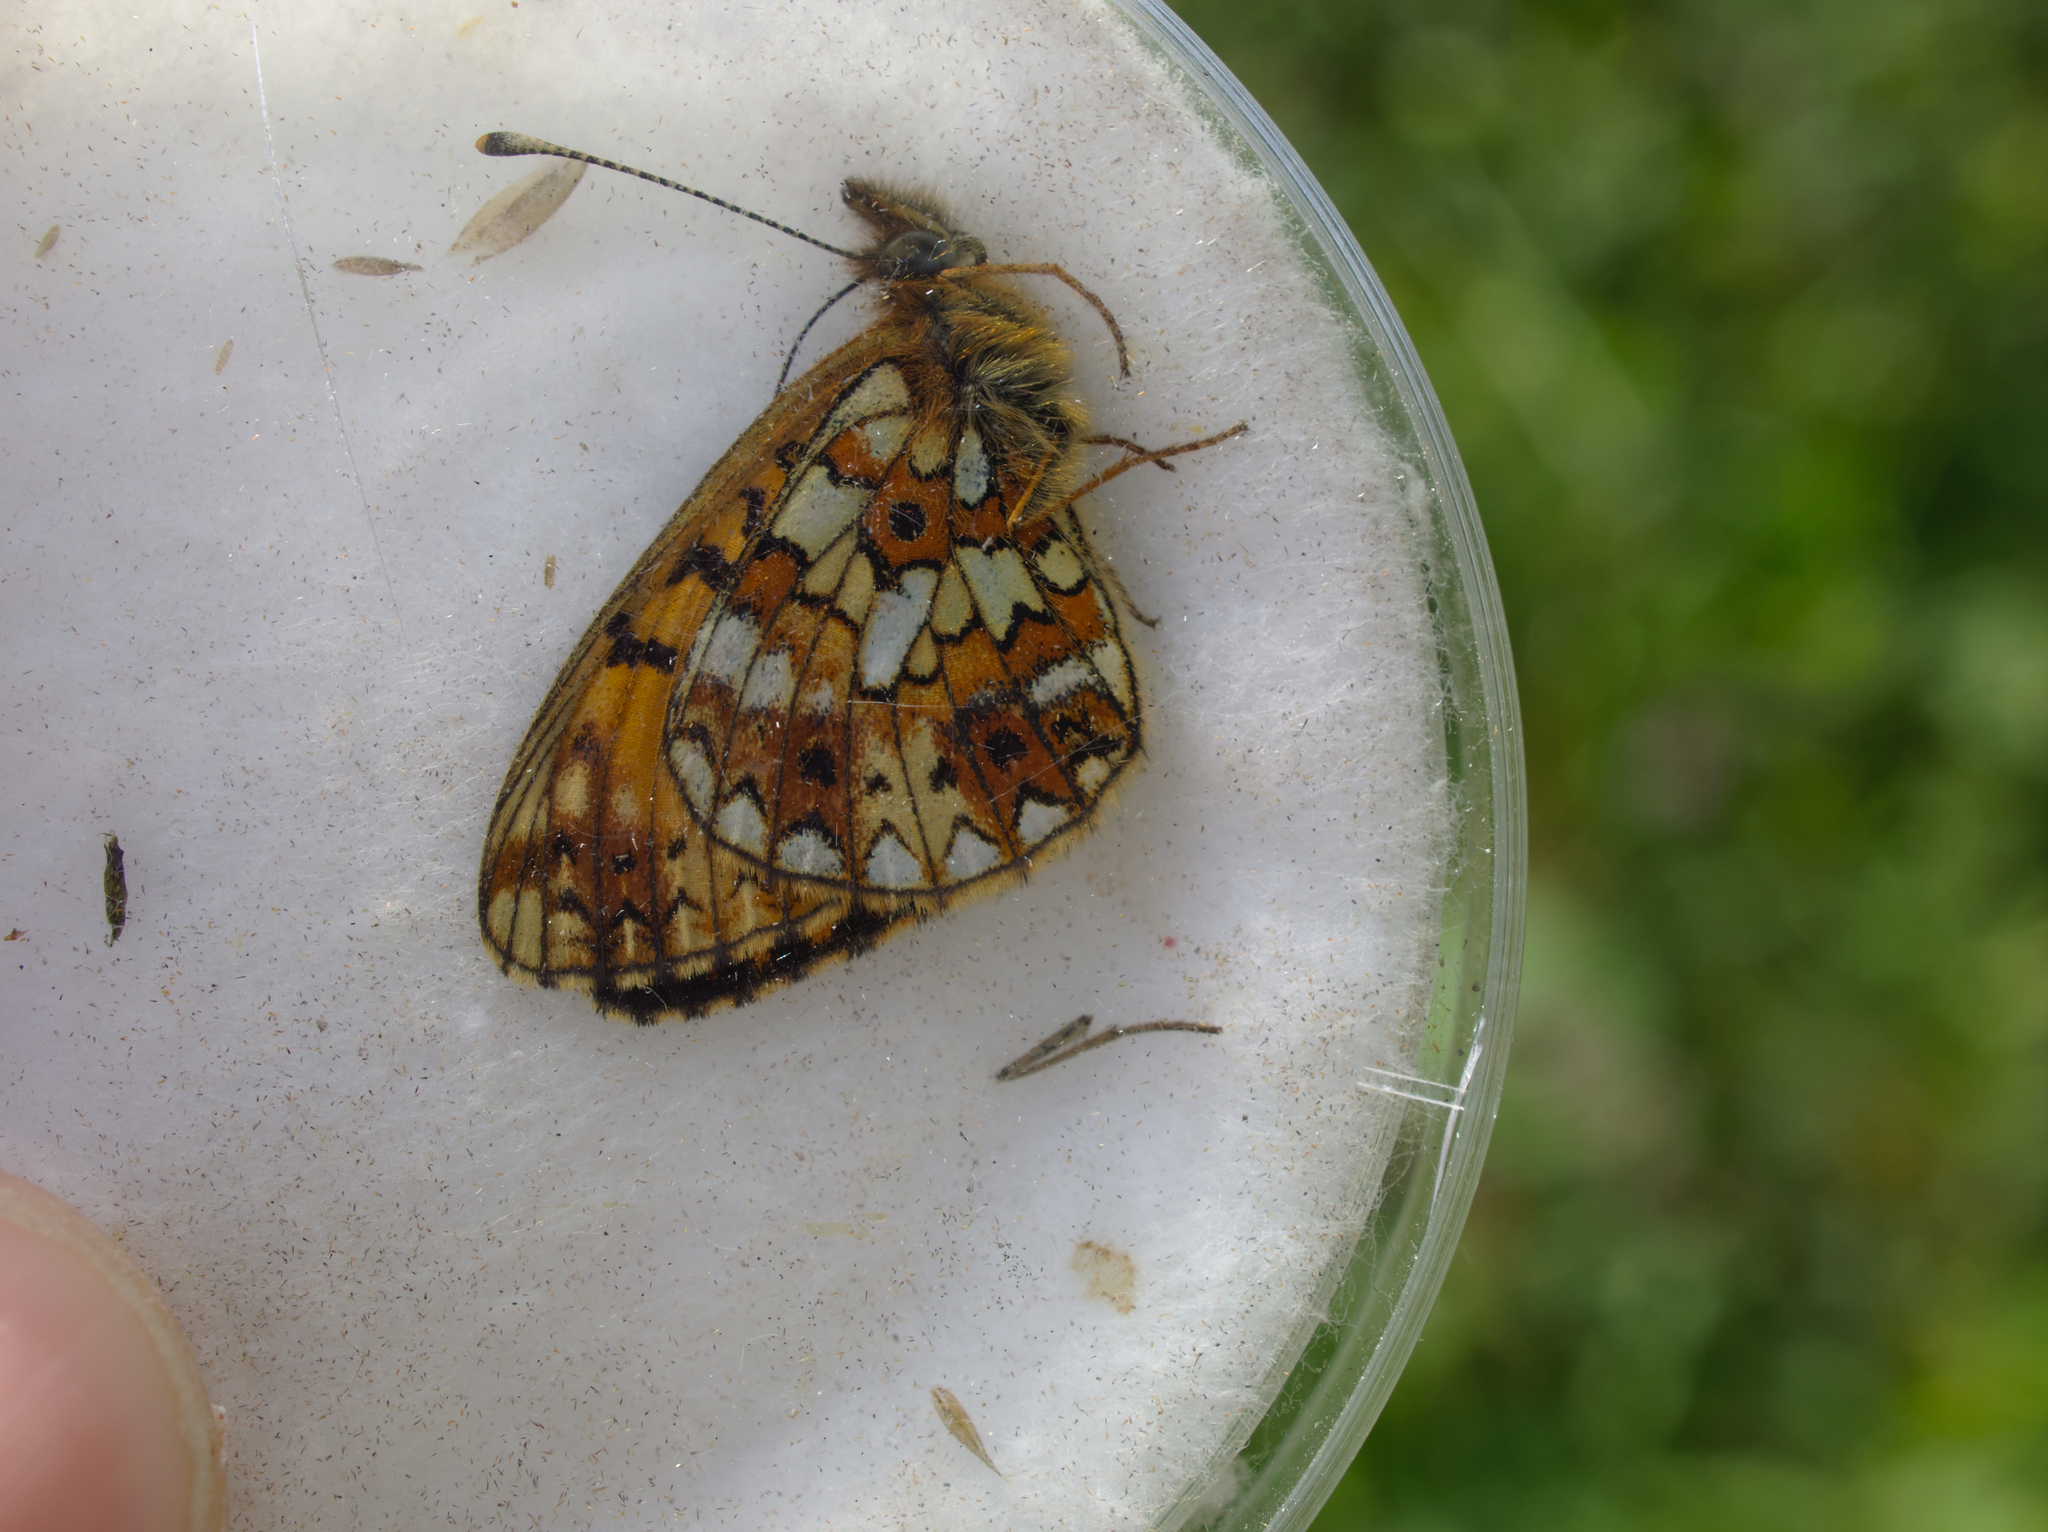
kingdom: Animalia
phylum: Arthropoda
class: Insecta
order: Lepidoptera
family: Nymphalidae
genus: Boloria
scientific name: Boloria selene
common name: Small pearl-bordered fritillary
